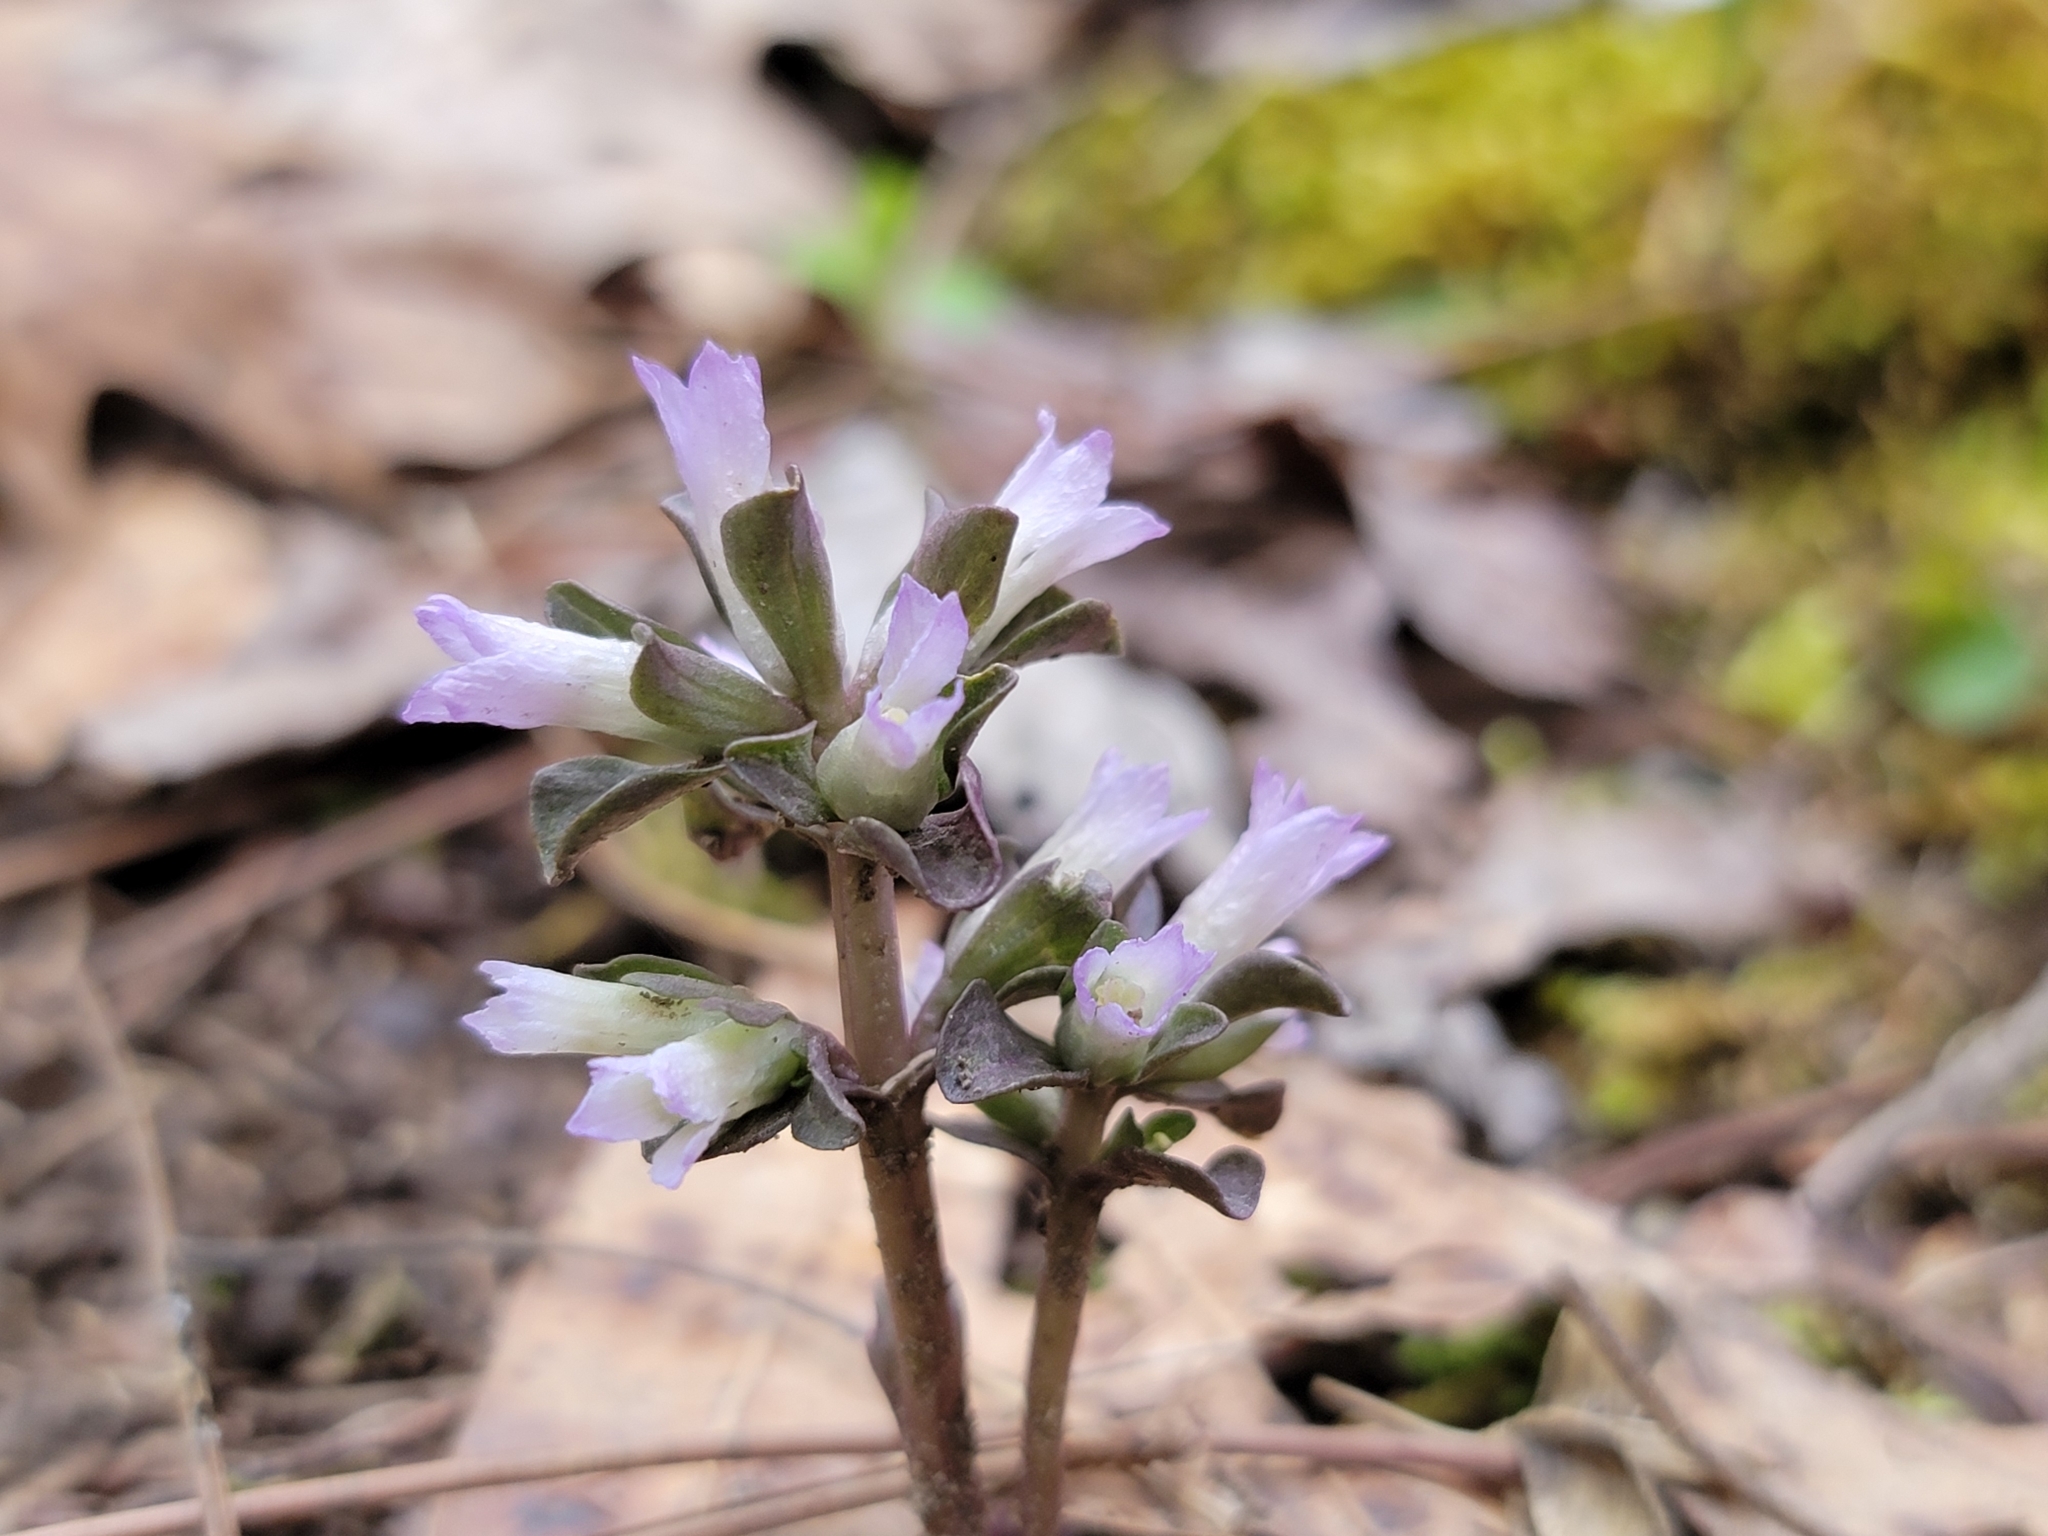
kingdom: Plantae
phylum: Tracheophyta
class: Magnoliopsida
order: Gentianales
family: Gentianaceae
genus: Obolaria
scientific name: Obolaria virginica
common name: Pennywort
